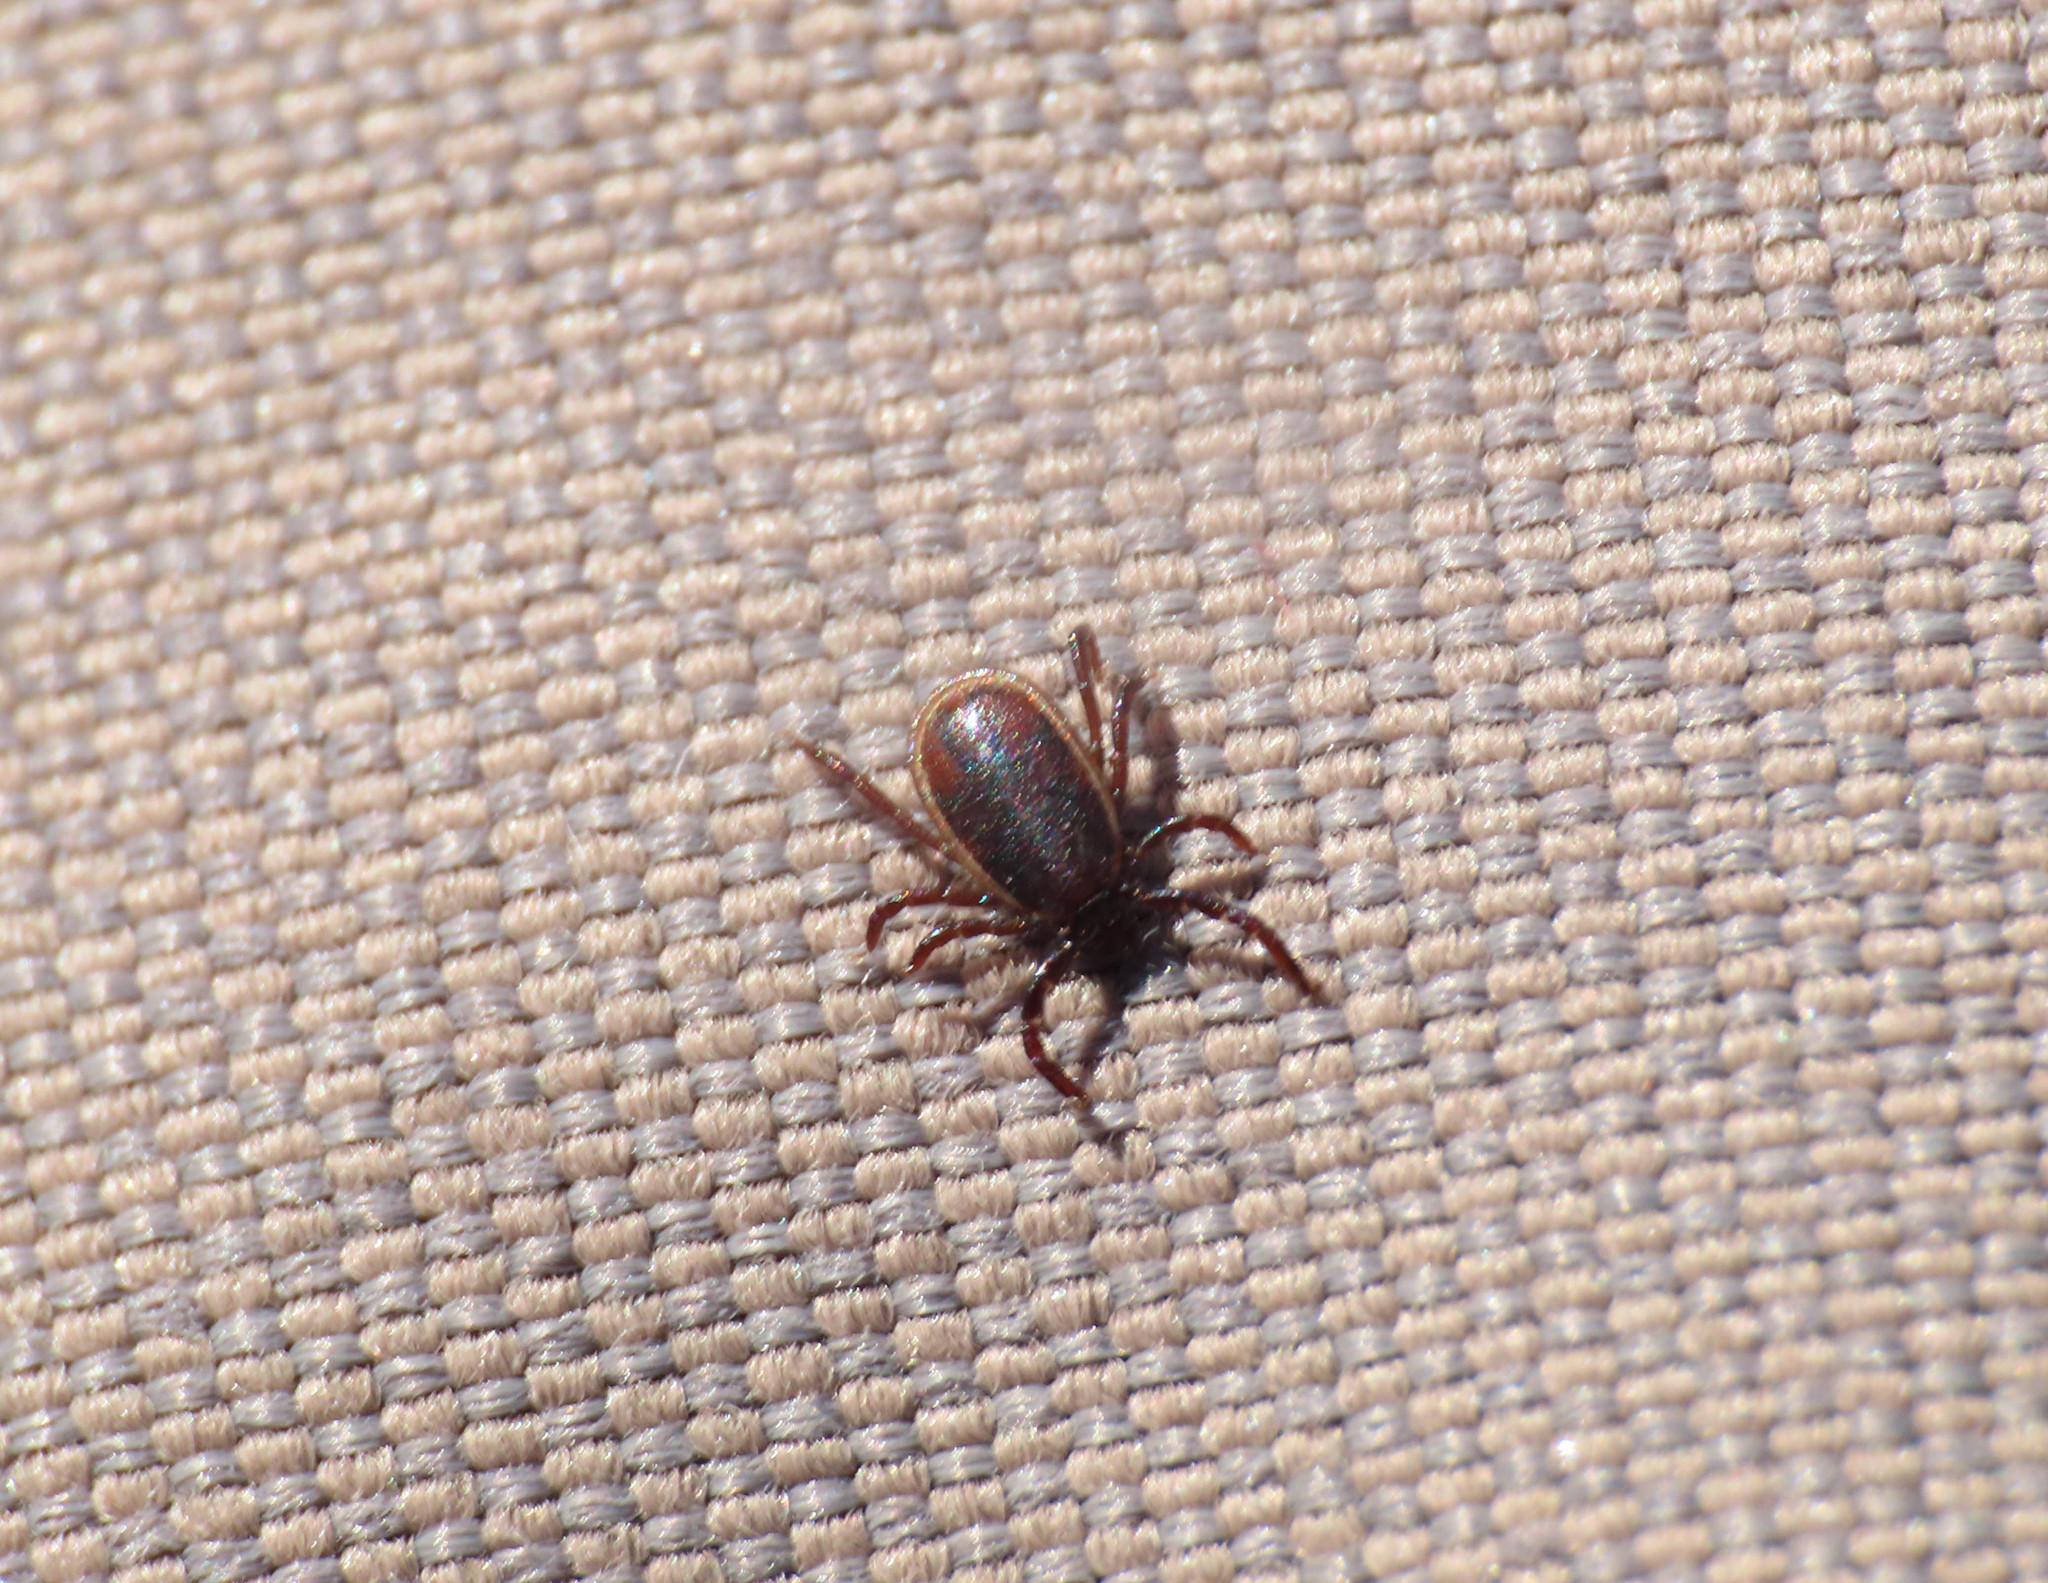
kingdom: Animalia
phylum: Arthropoda
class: Arachnida
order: Ixodida
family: Ixodidae
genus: Ixodes
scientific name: Ixodes ricinus
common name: Castor bean tick
